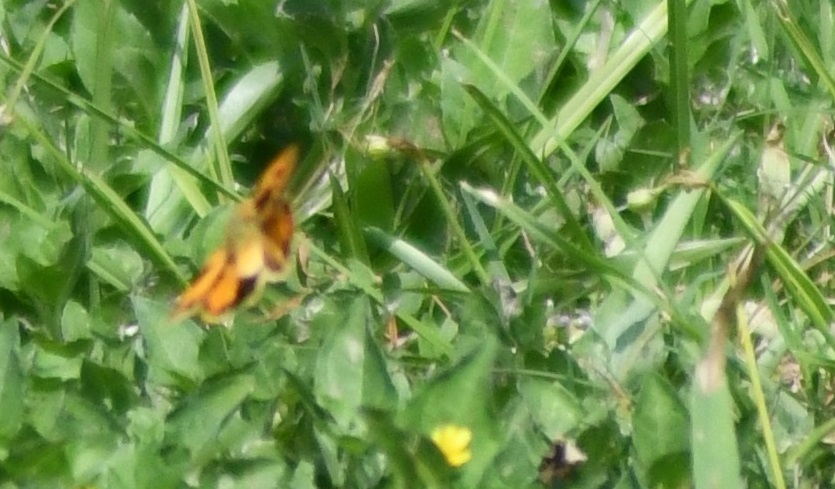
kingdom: Animalia
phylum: Arthropoda
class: Insecta
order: Lepidoptera
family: Hesperiidae
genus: Hylephila
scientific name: Hylephila phyleus
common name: Fiery skipper
